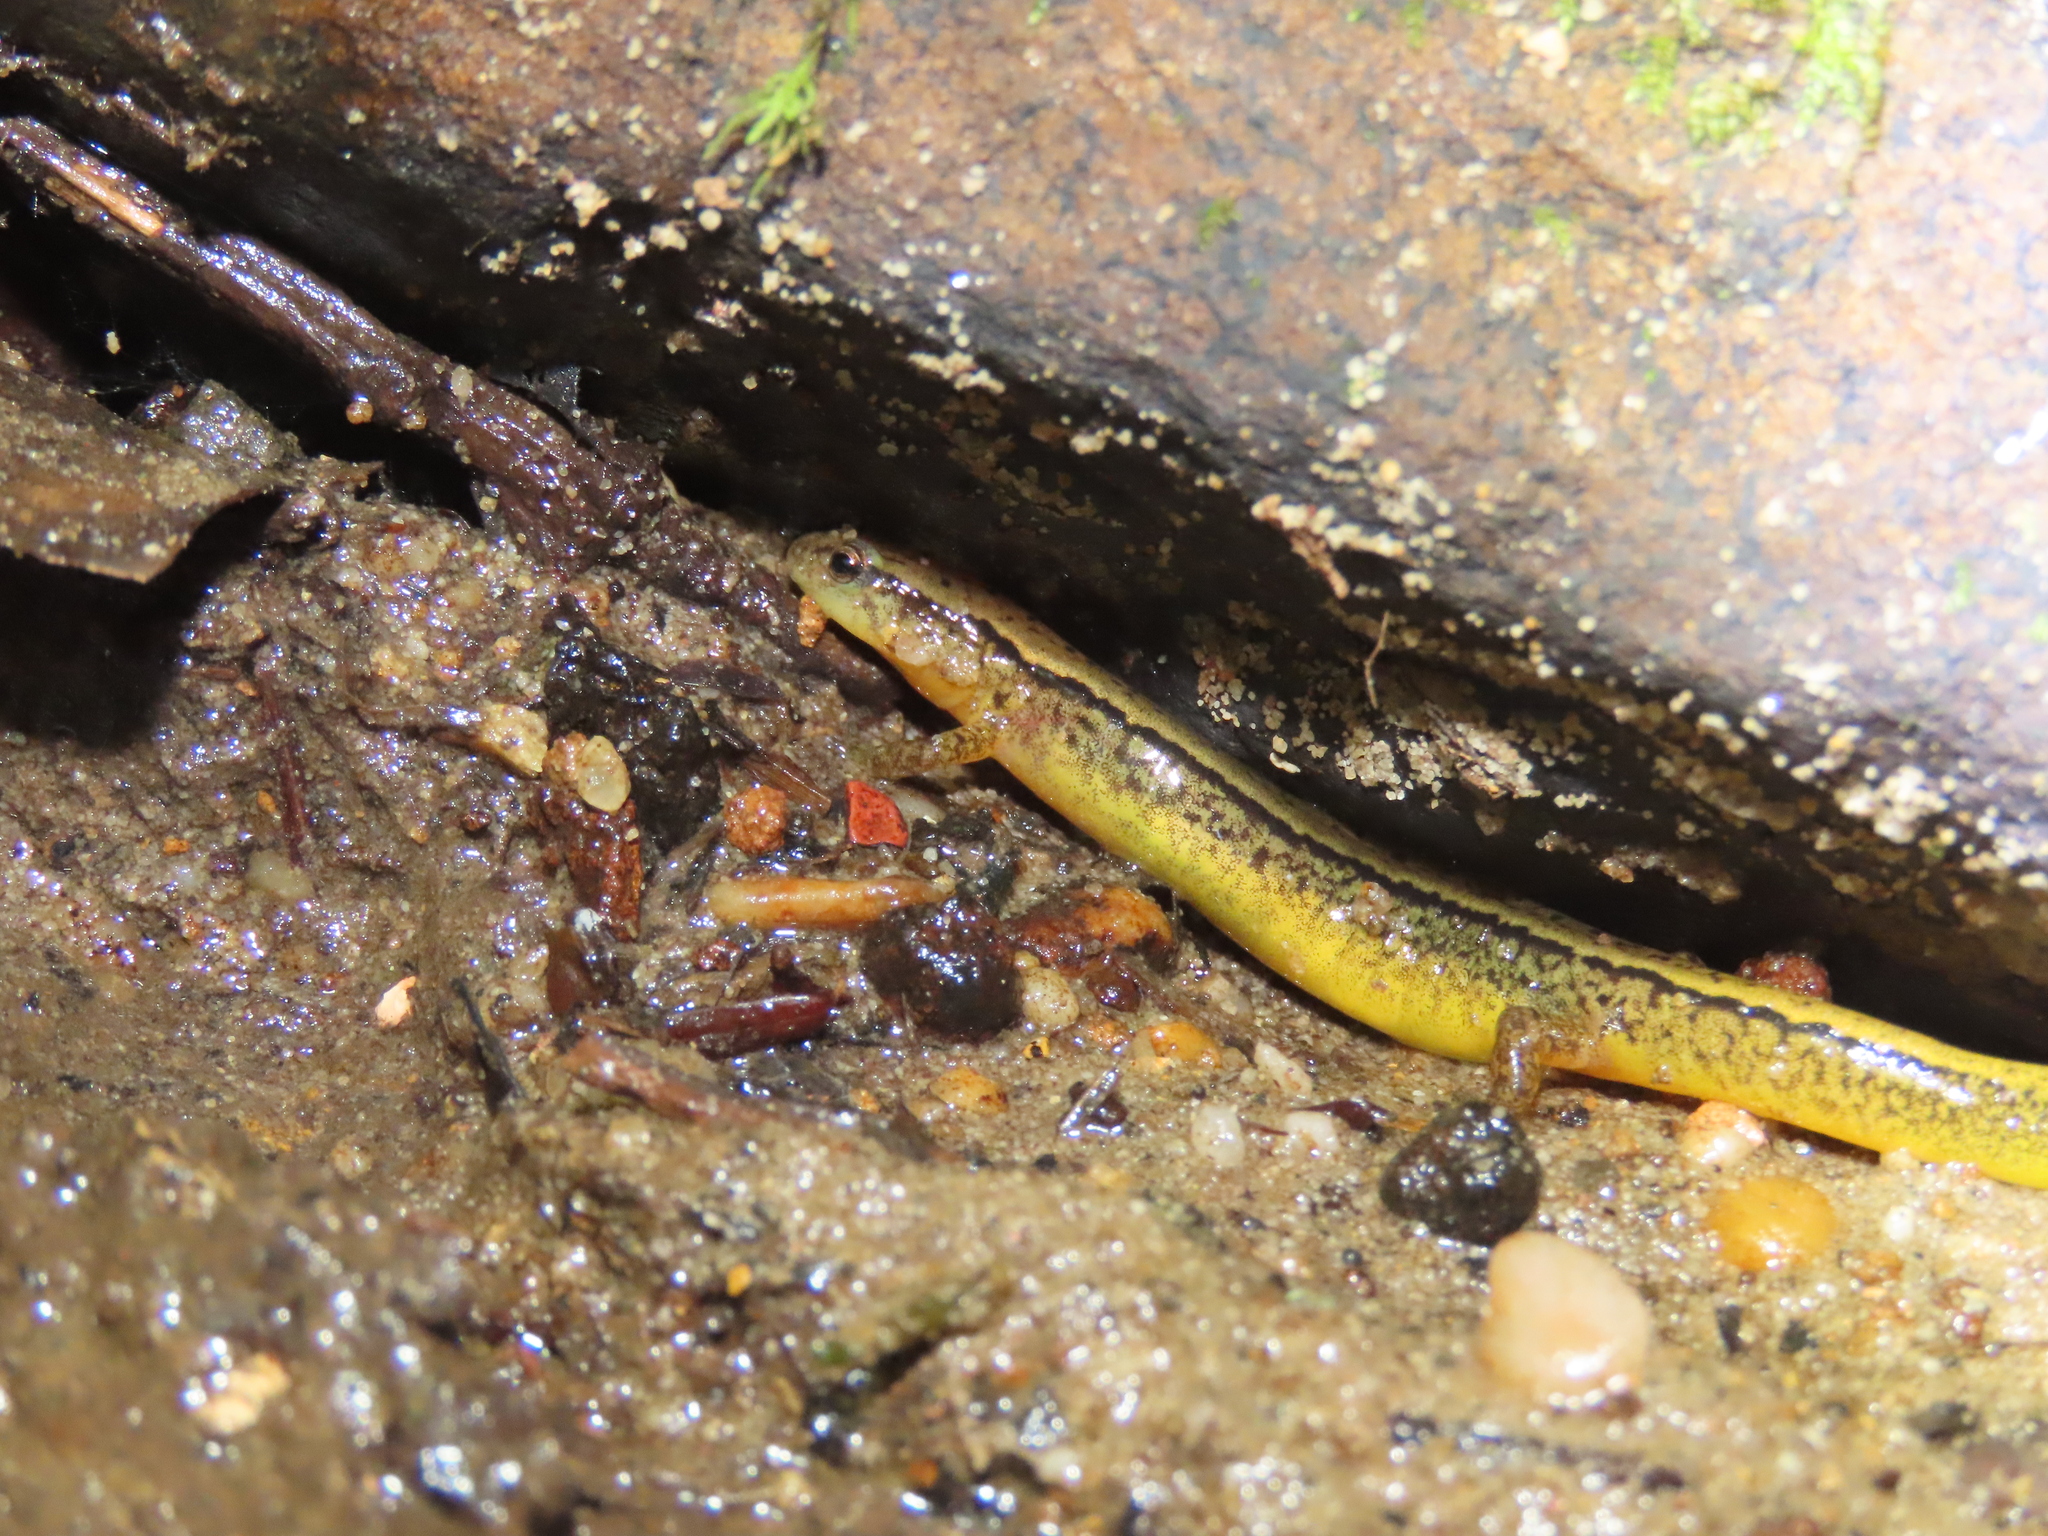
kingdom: Animalia
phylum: Chordata
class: Amphibia
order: Caudata
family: Plethodontidae
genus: Eurycea
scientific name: Eurycea bislineata
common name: Northern two-lined salamander
